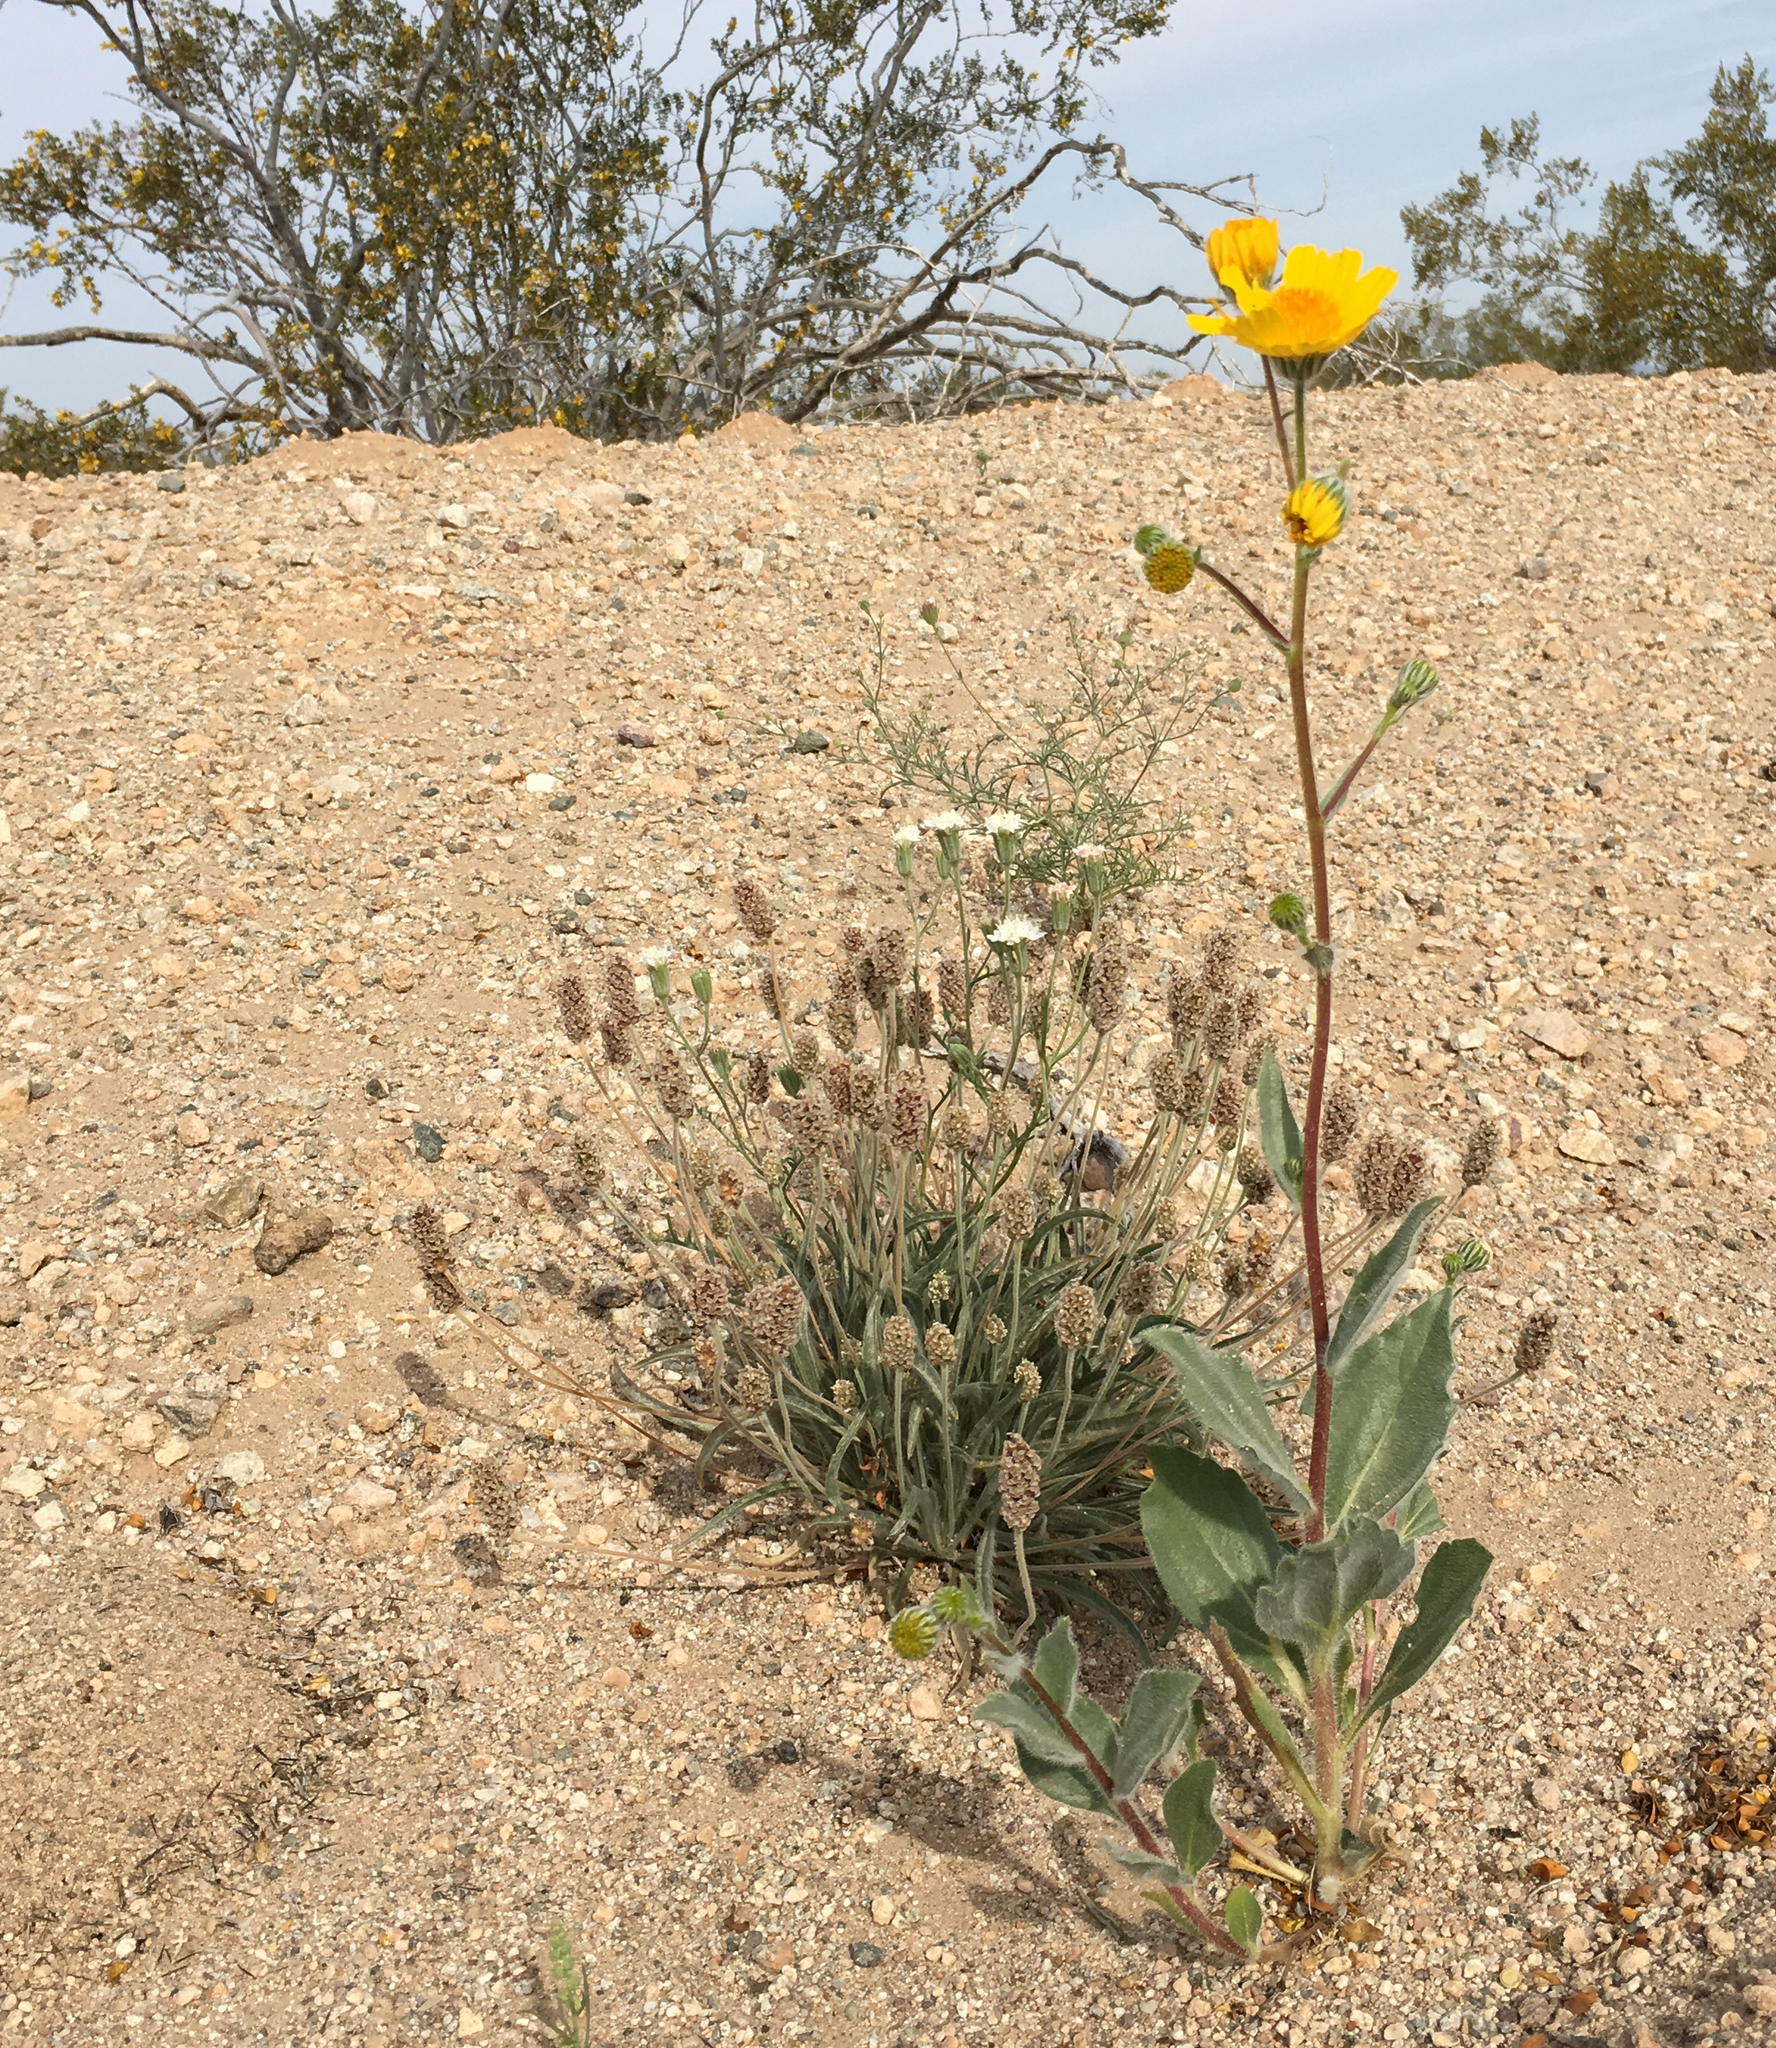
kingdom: Plantae
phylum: Tracheophyta
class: Magnoliopsida
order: Asterales
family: Asteraceae
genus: Geraea
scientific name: Geraea canescens
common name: Desert-gold
